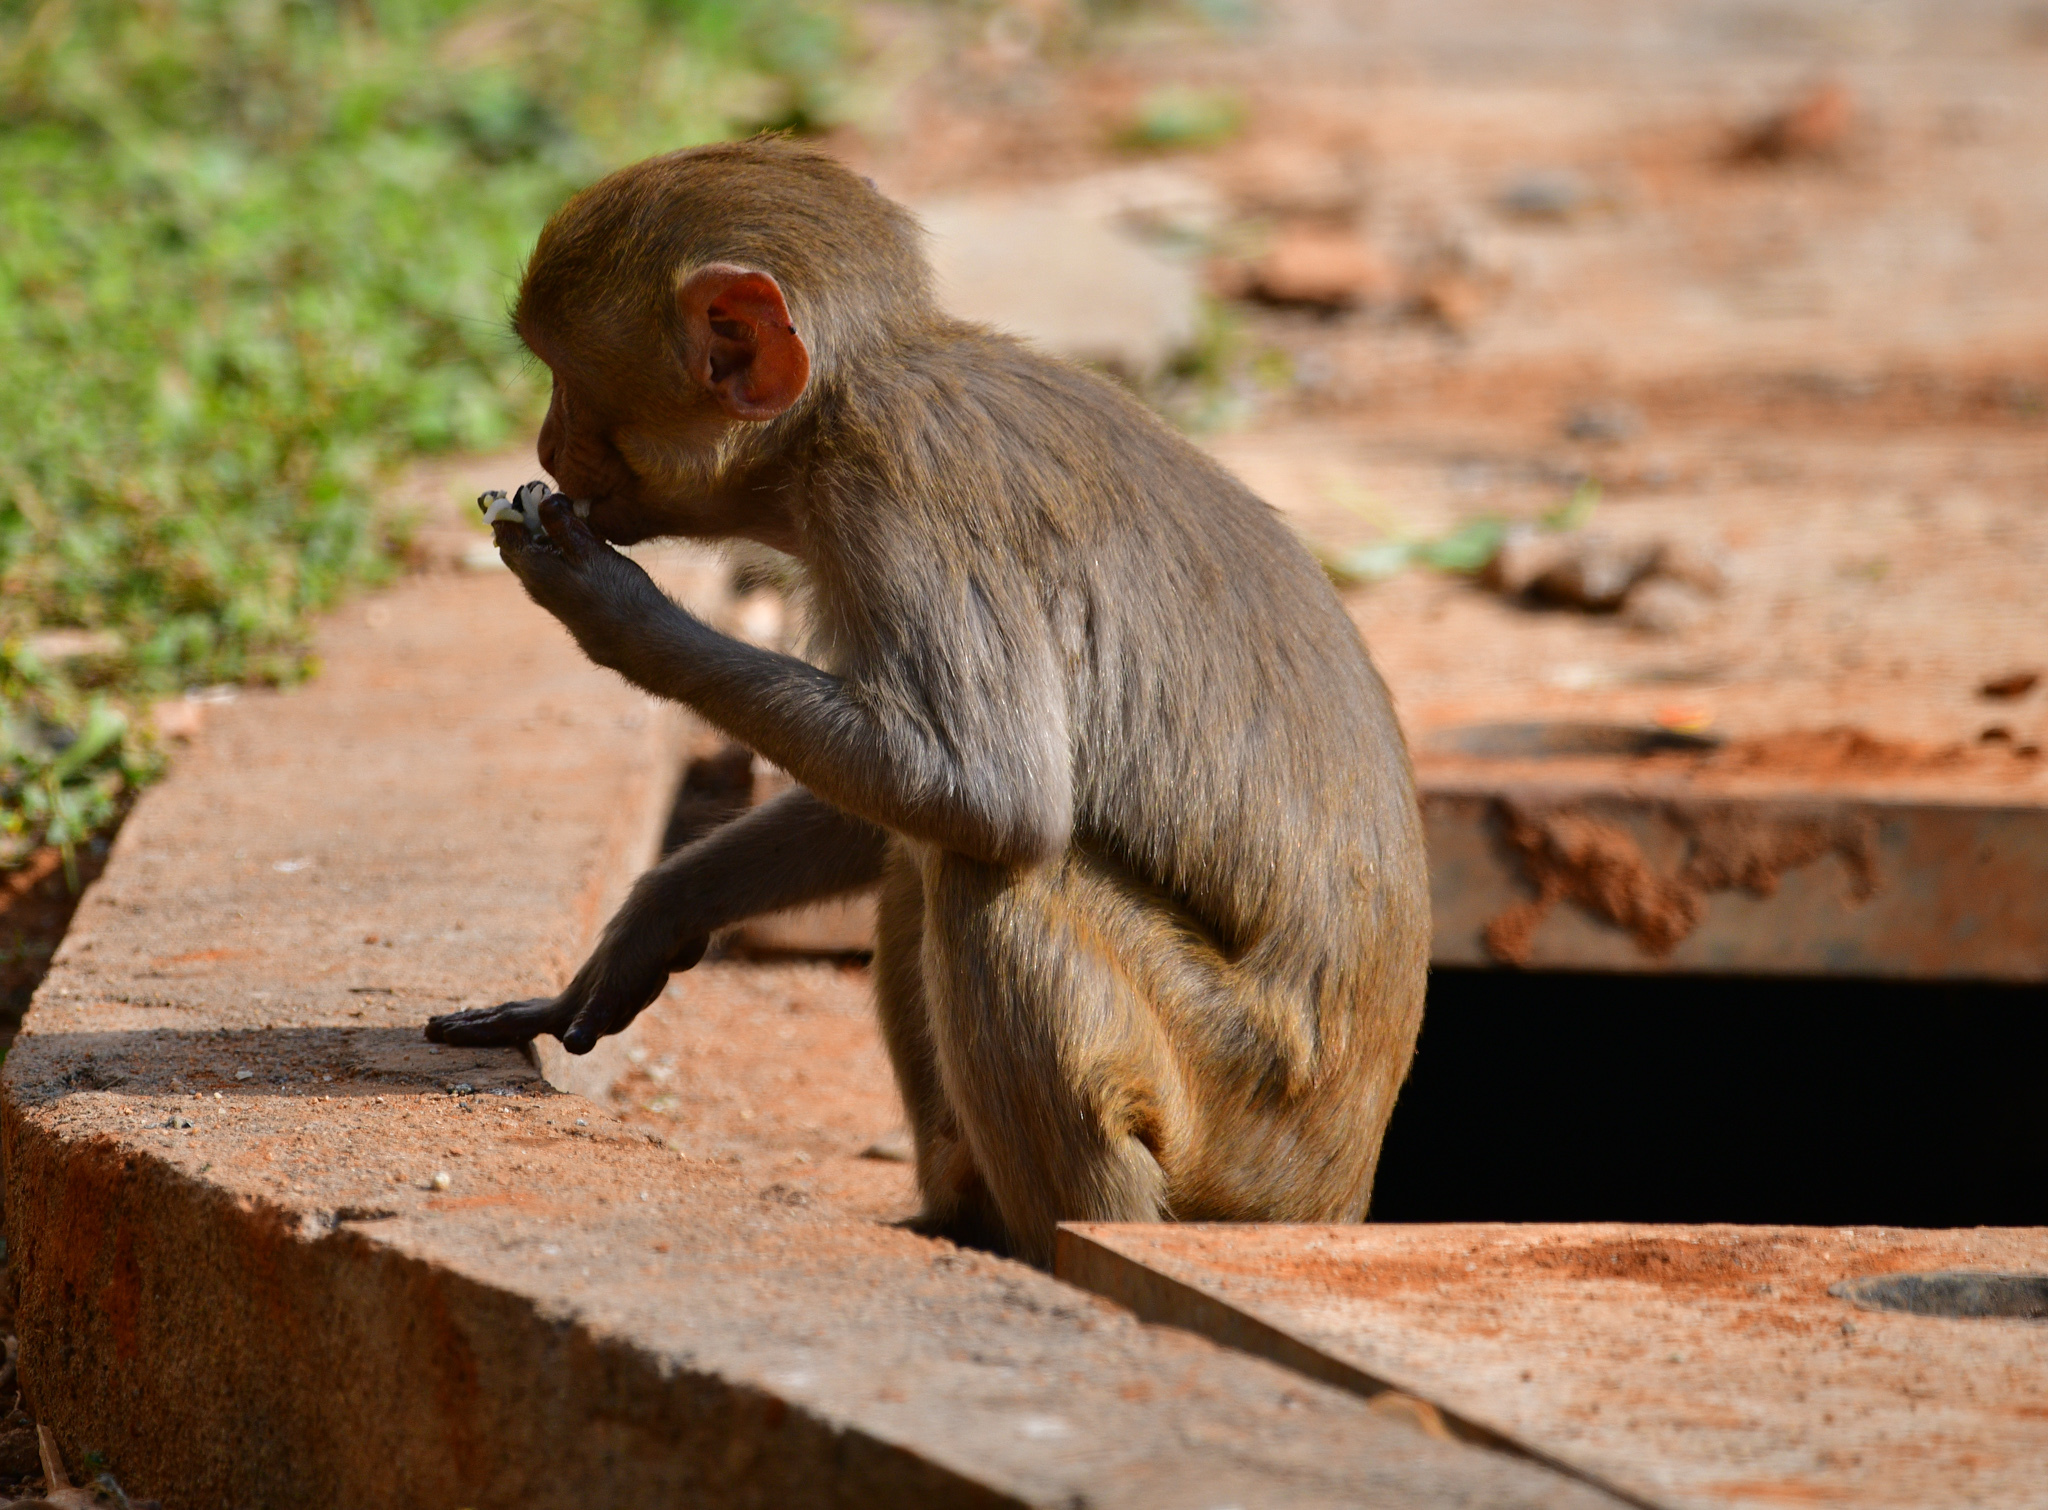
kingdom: Animalia
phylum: Chordata
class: Mammalia
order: Primates
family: Cercopithecidae
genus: Macaca
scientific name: Macaca mulatta
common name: Rhesus monkey
